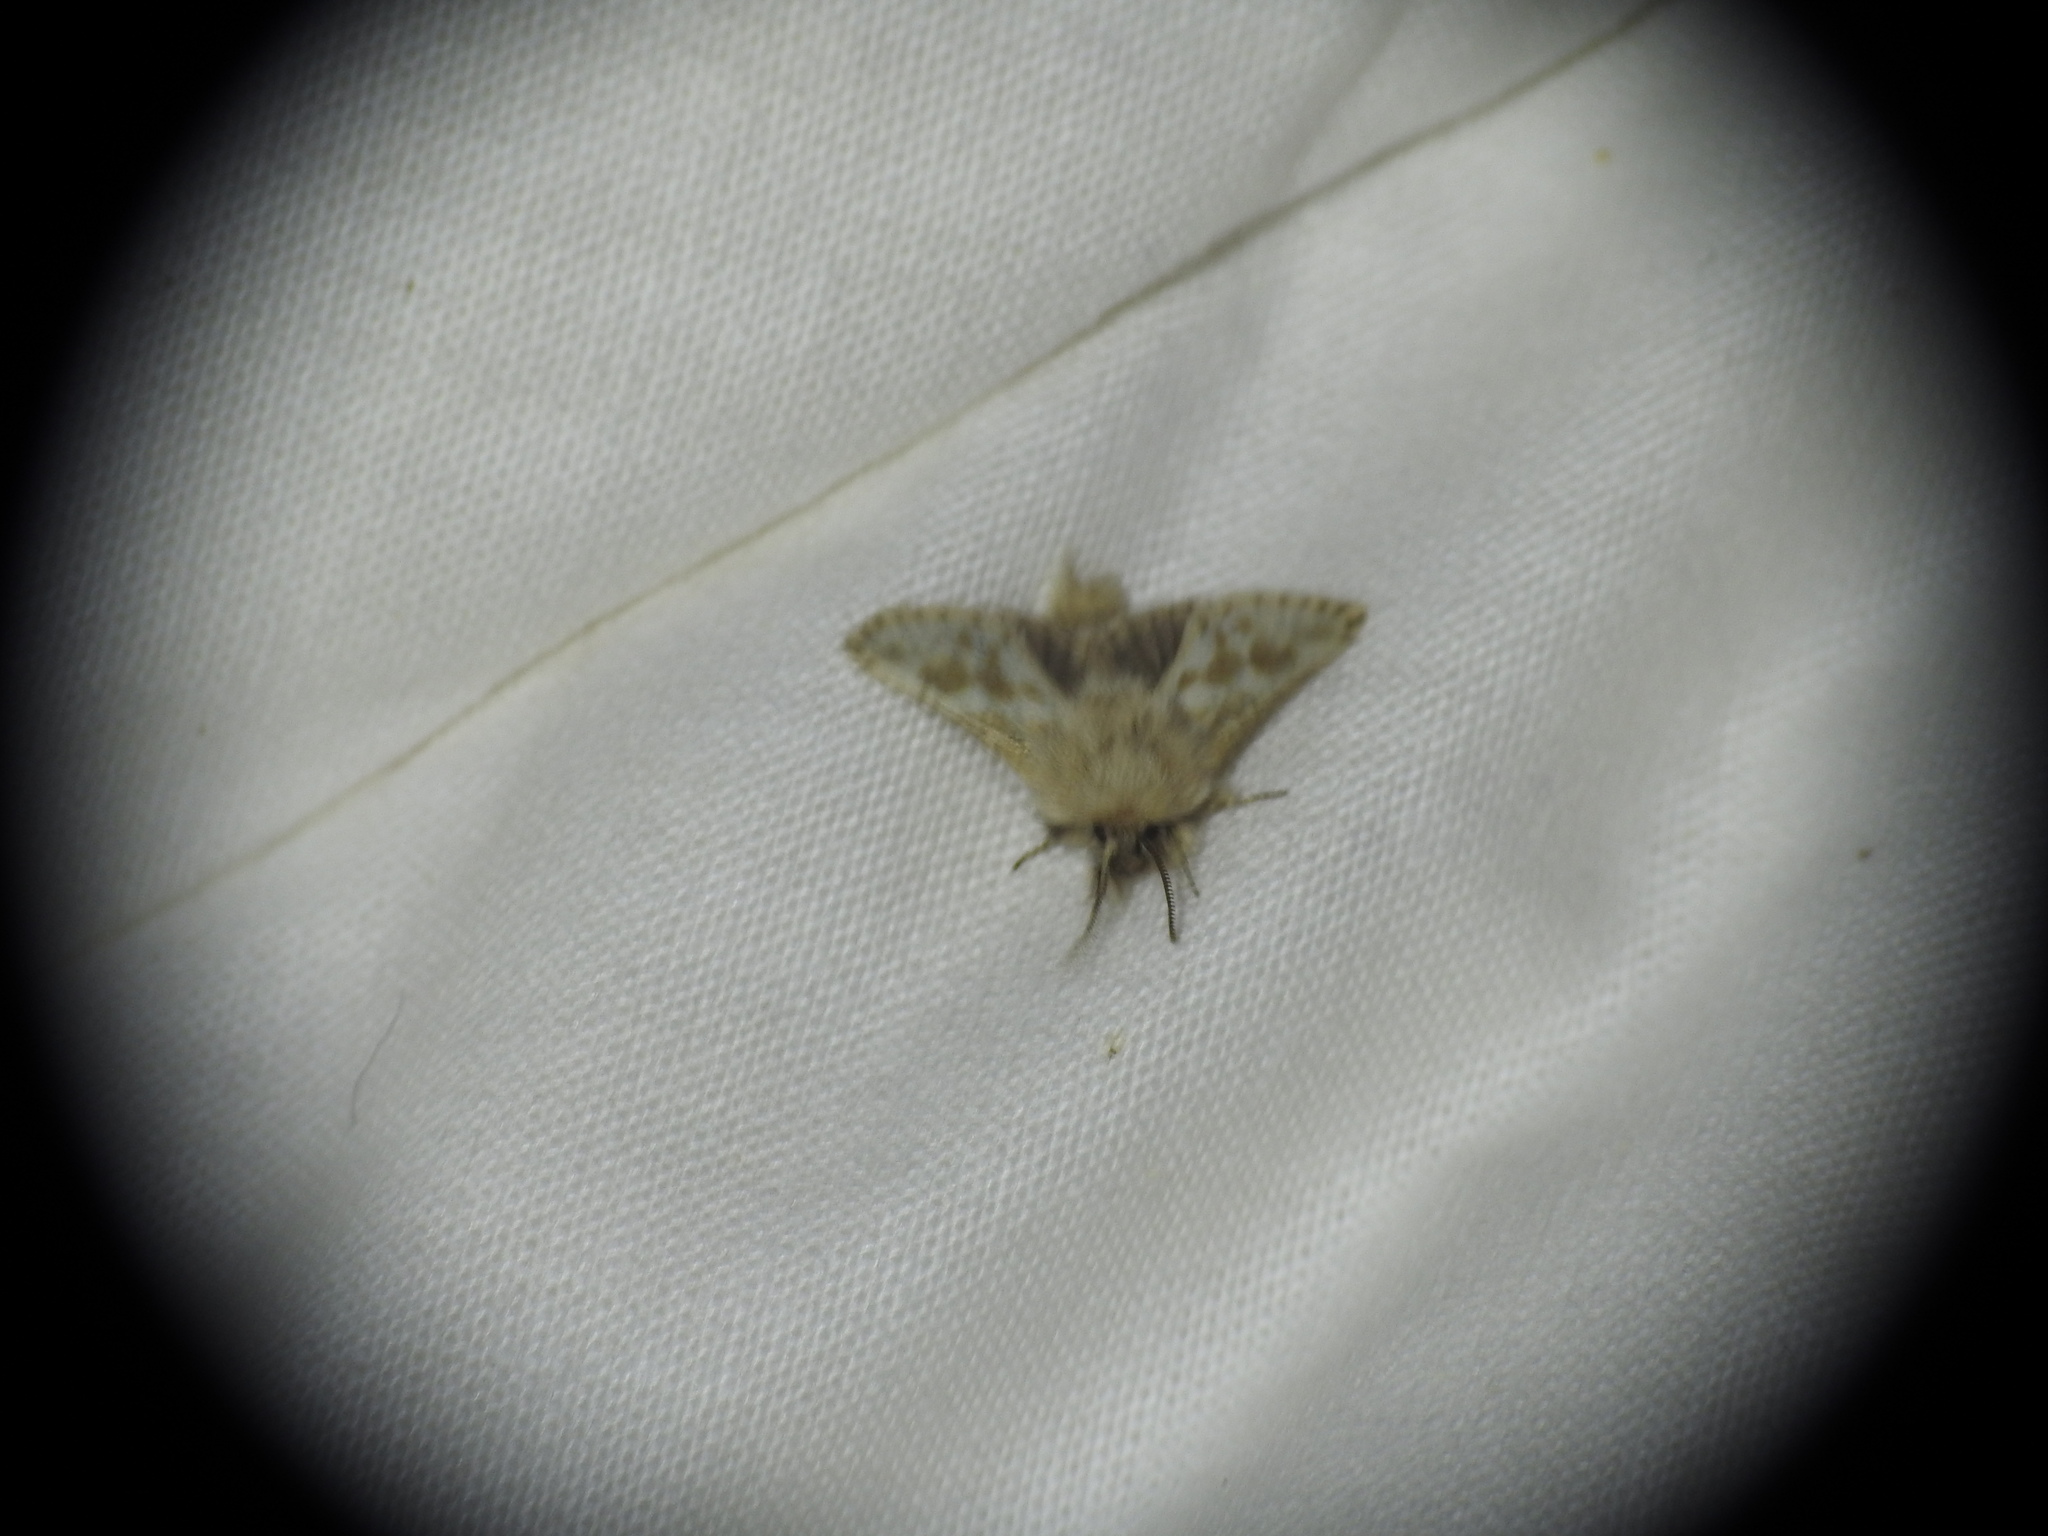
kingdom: Animalia
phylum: Arthropoda
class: Insecta
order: Lepidoptera
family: Cossidae
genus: Dyspessa
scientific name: Dyspessa ulula
